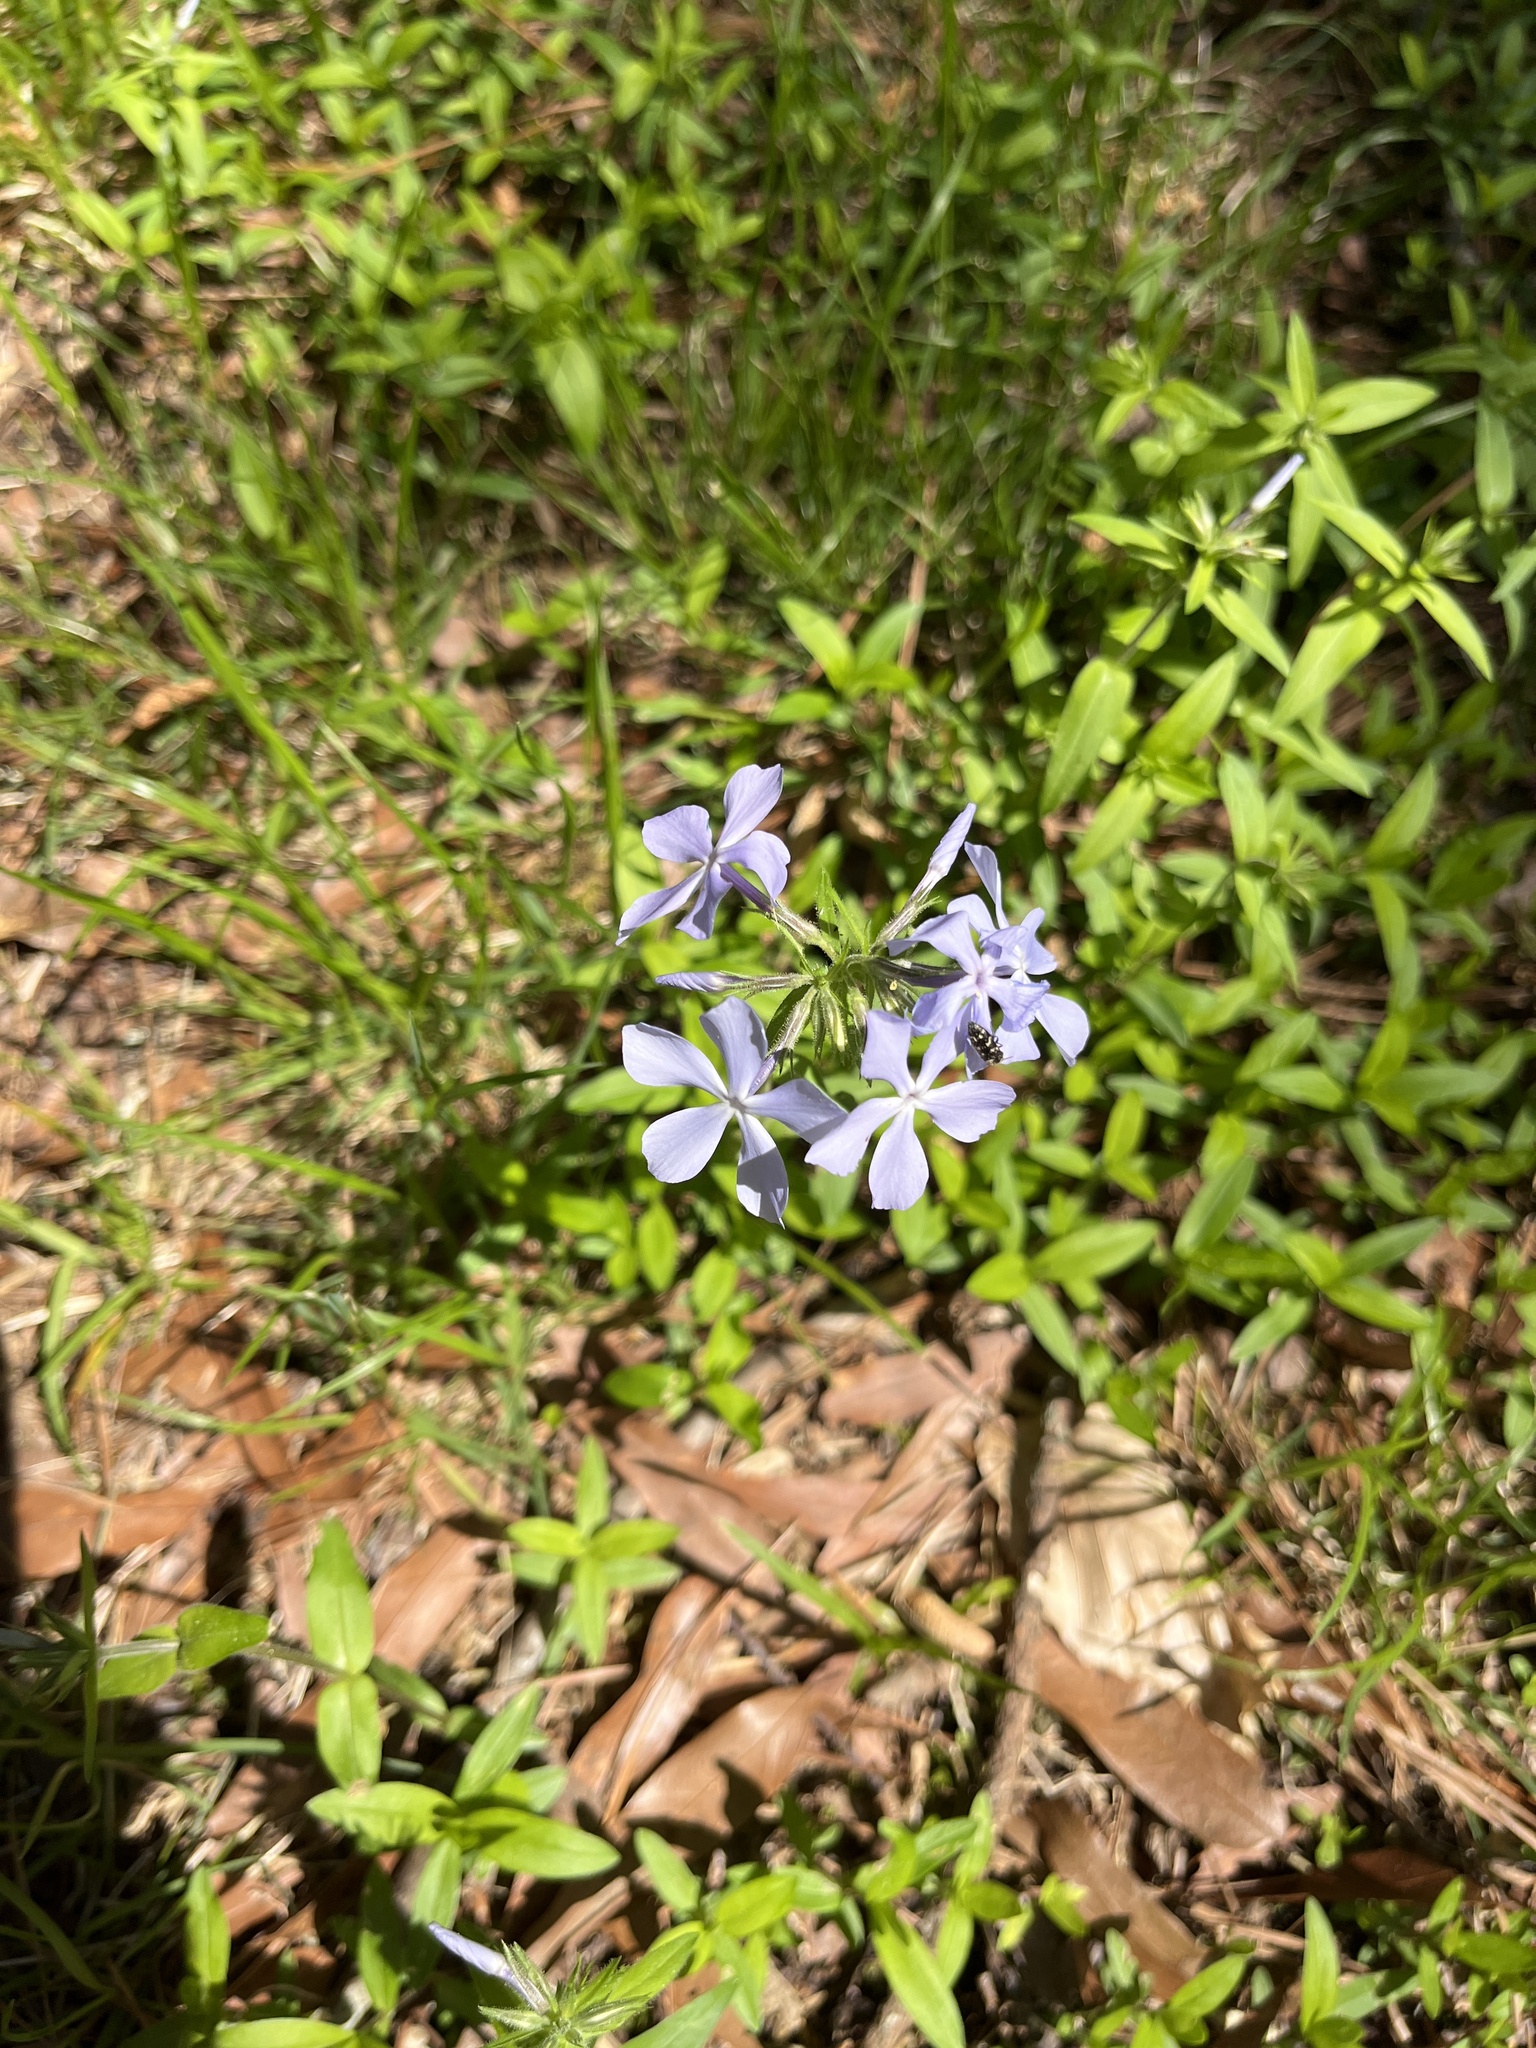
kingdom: Plantae
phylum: Tracheophyta
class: Magnoliopsida
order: Ericales
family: Polemoniaceae
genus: Phlox
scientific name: Phlox divaricata
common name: Blue phlox
